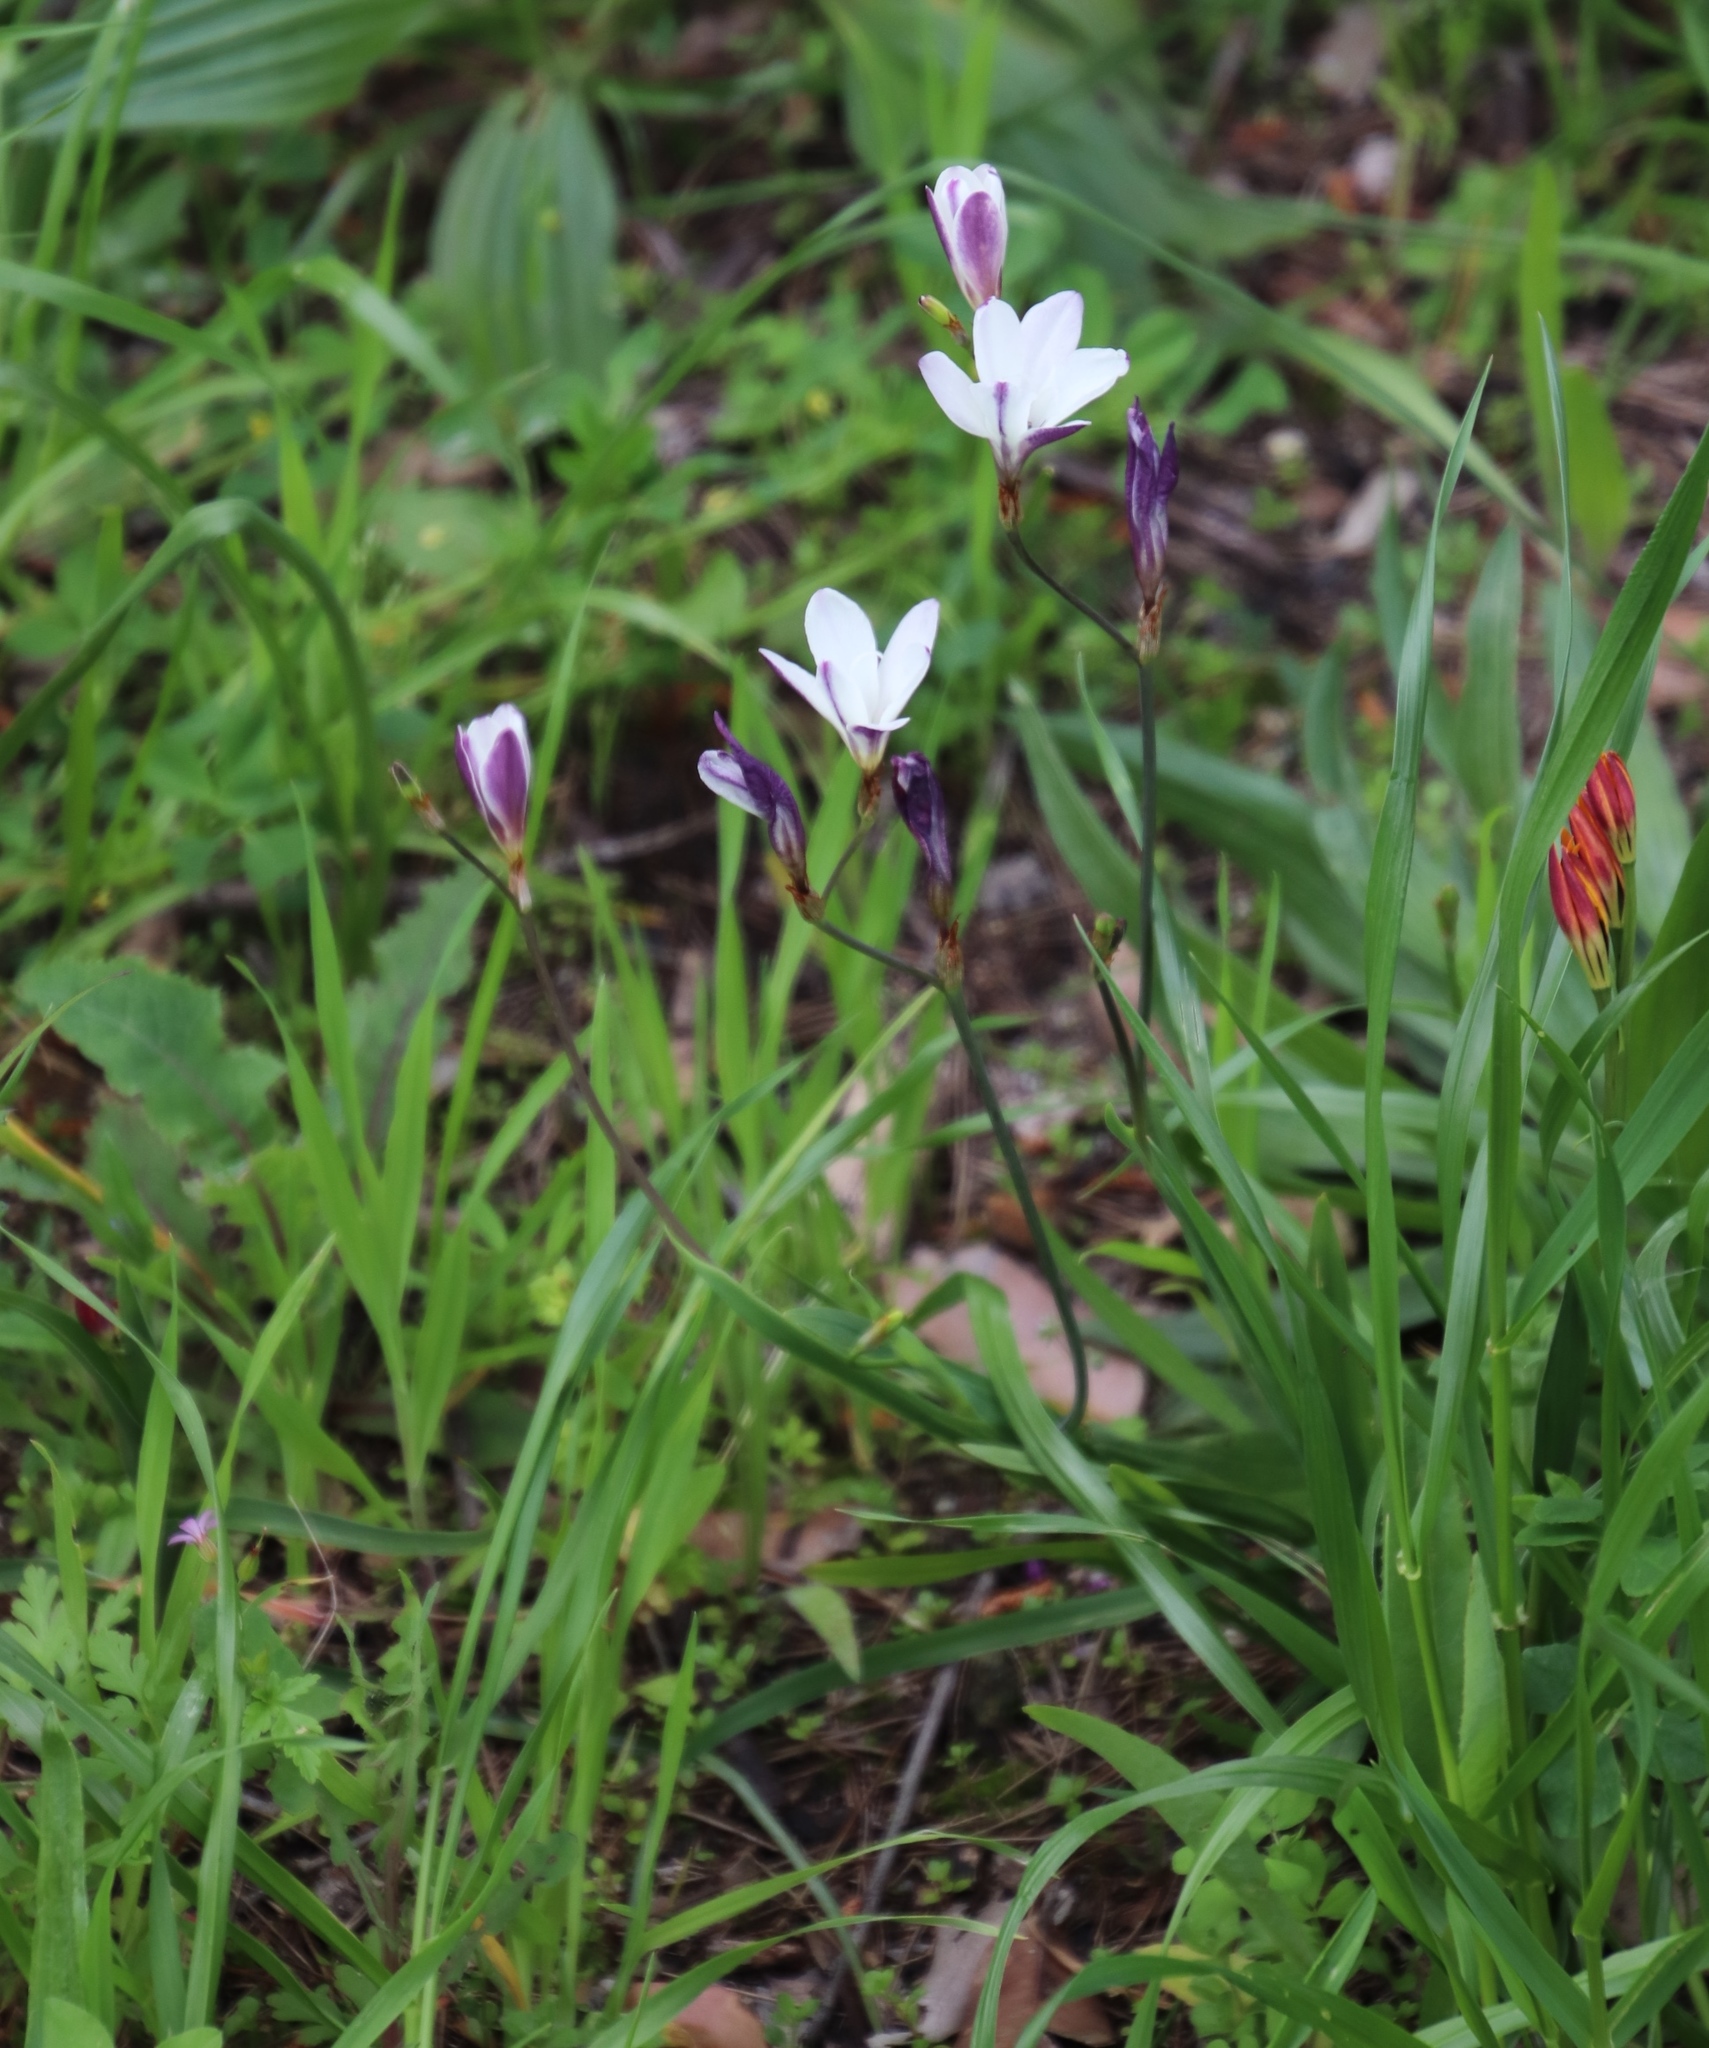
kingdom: Plantae
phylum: Tracheophyta
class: Liliopsida
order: Asparagales
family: Iridaceae
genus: Sparaxis
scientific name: Sparaxis bulbifera
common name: Harlequin-flower
